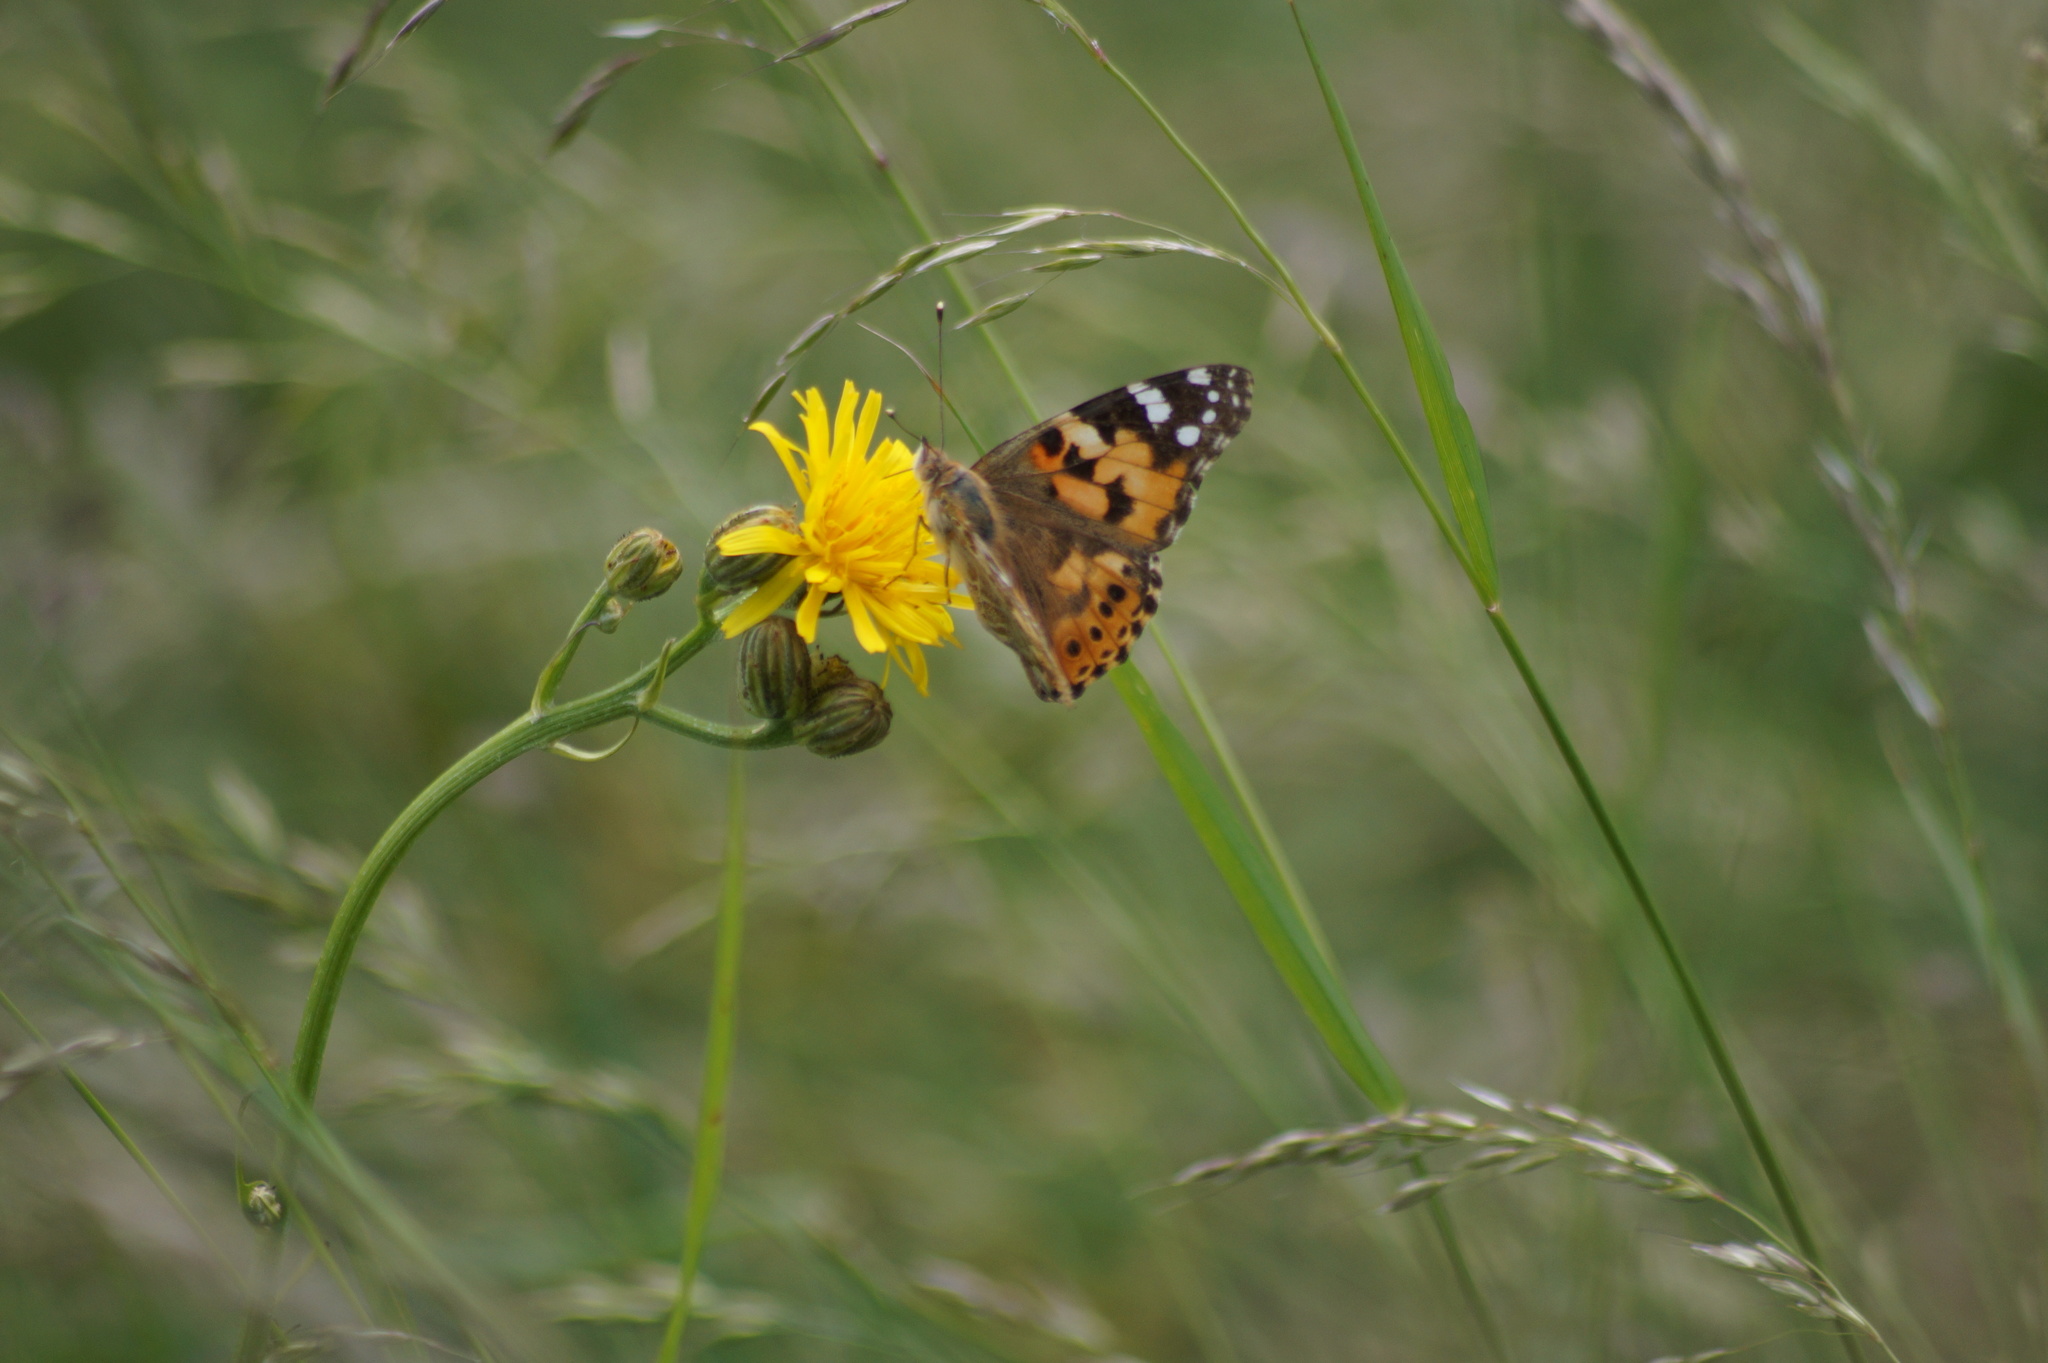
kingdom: Animalia
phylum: Arthropoda
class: Insecta
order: Lepidoptera
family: Nymphalidae
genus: Vanessa
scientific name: Vanessa cardui
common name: Painted lady
